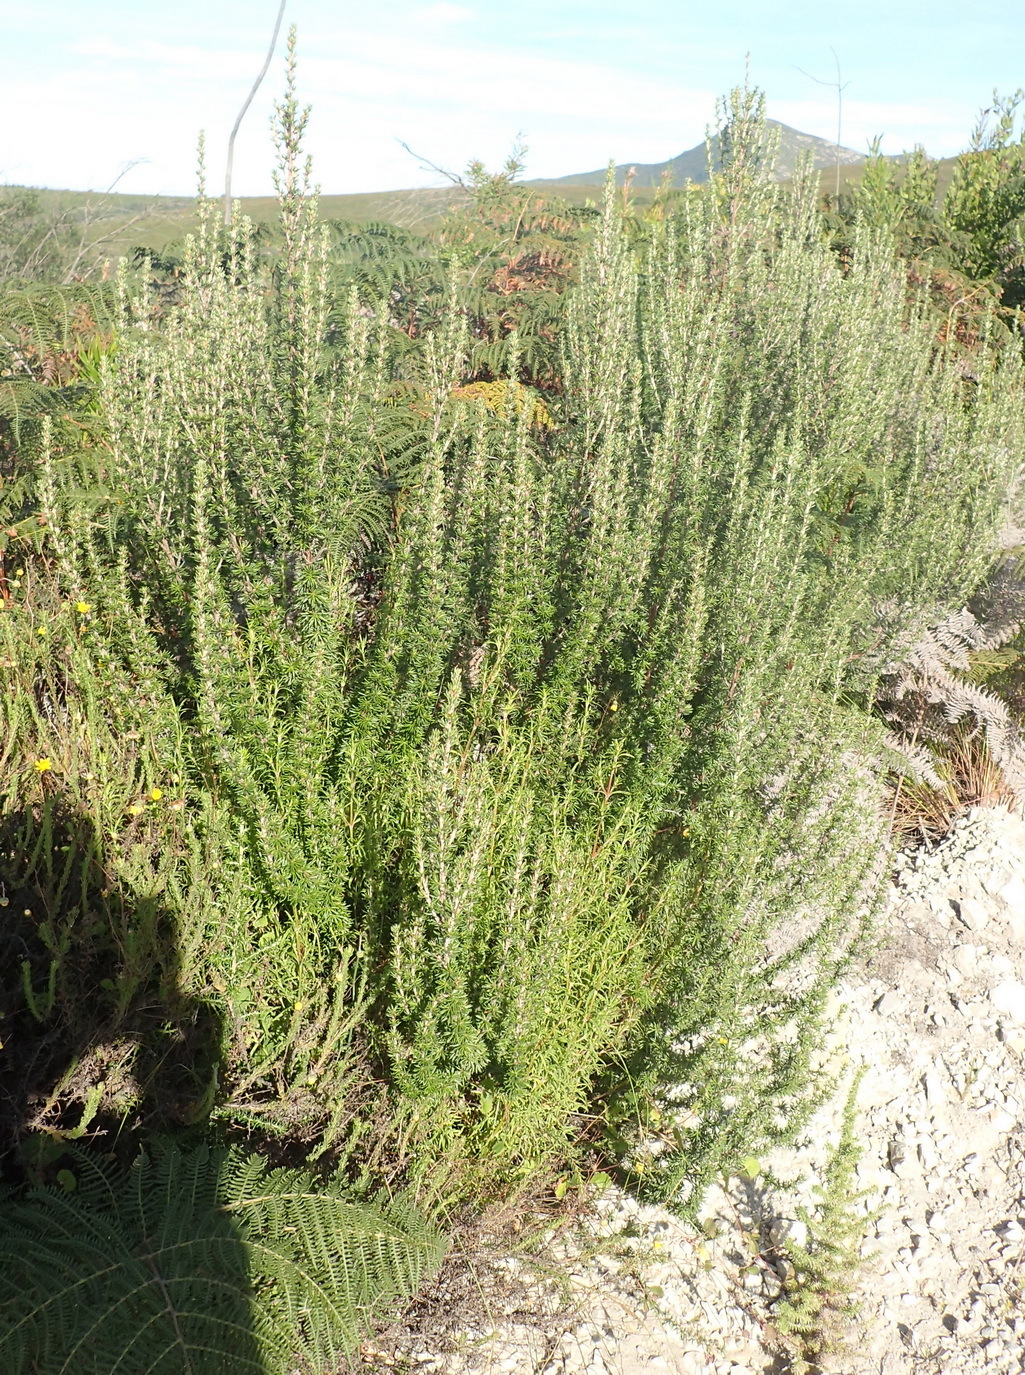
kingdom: Plantae
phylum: Tracheophyta
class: Magnoliopsida
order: Rosales
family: Rosaceae
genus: Cliffortia
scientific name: Cliffortia stricta
